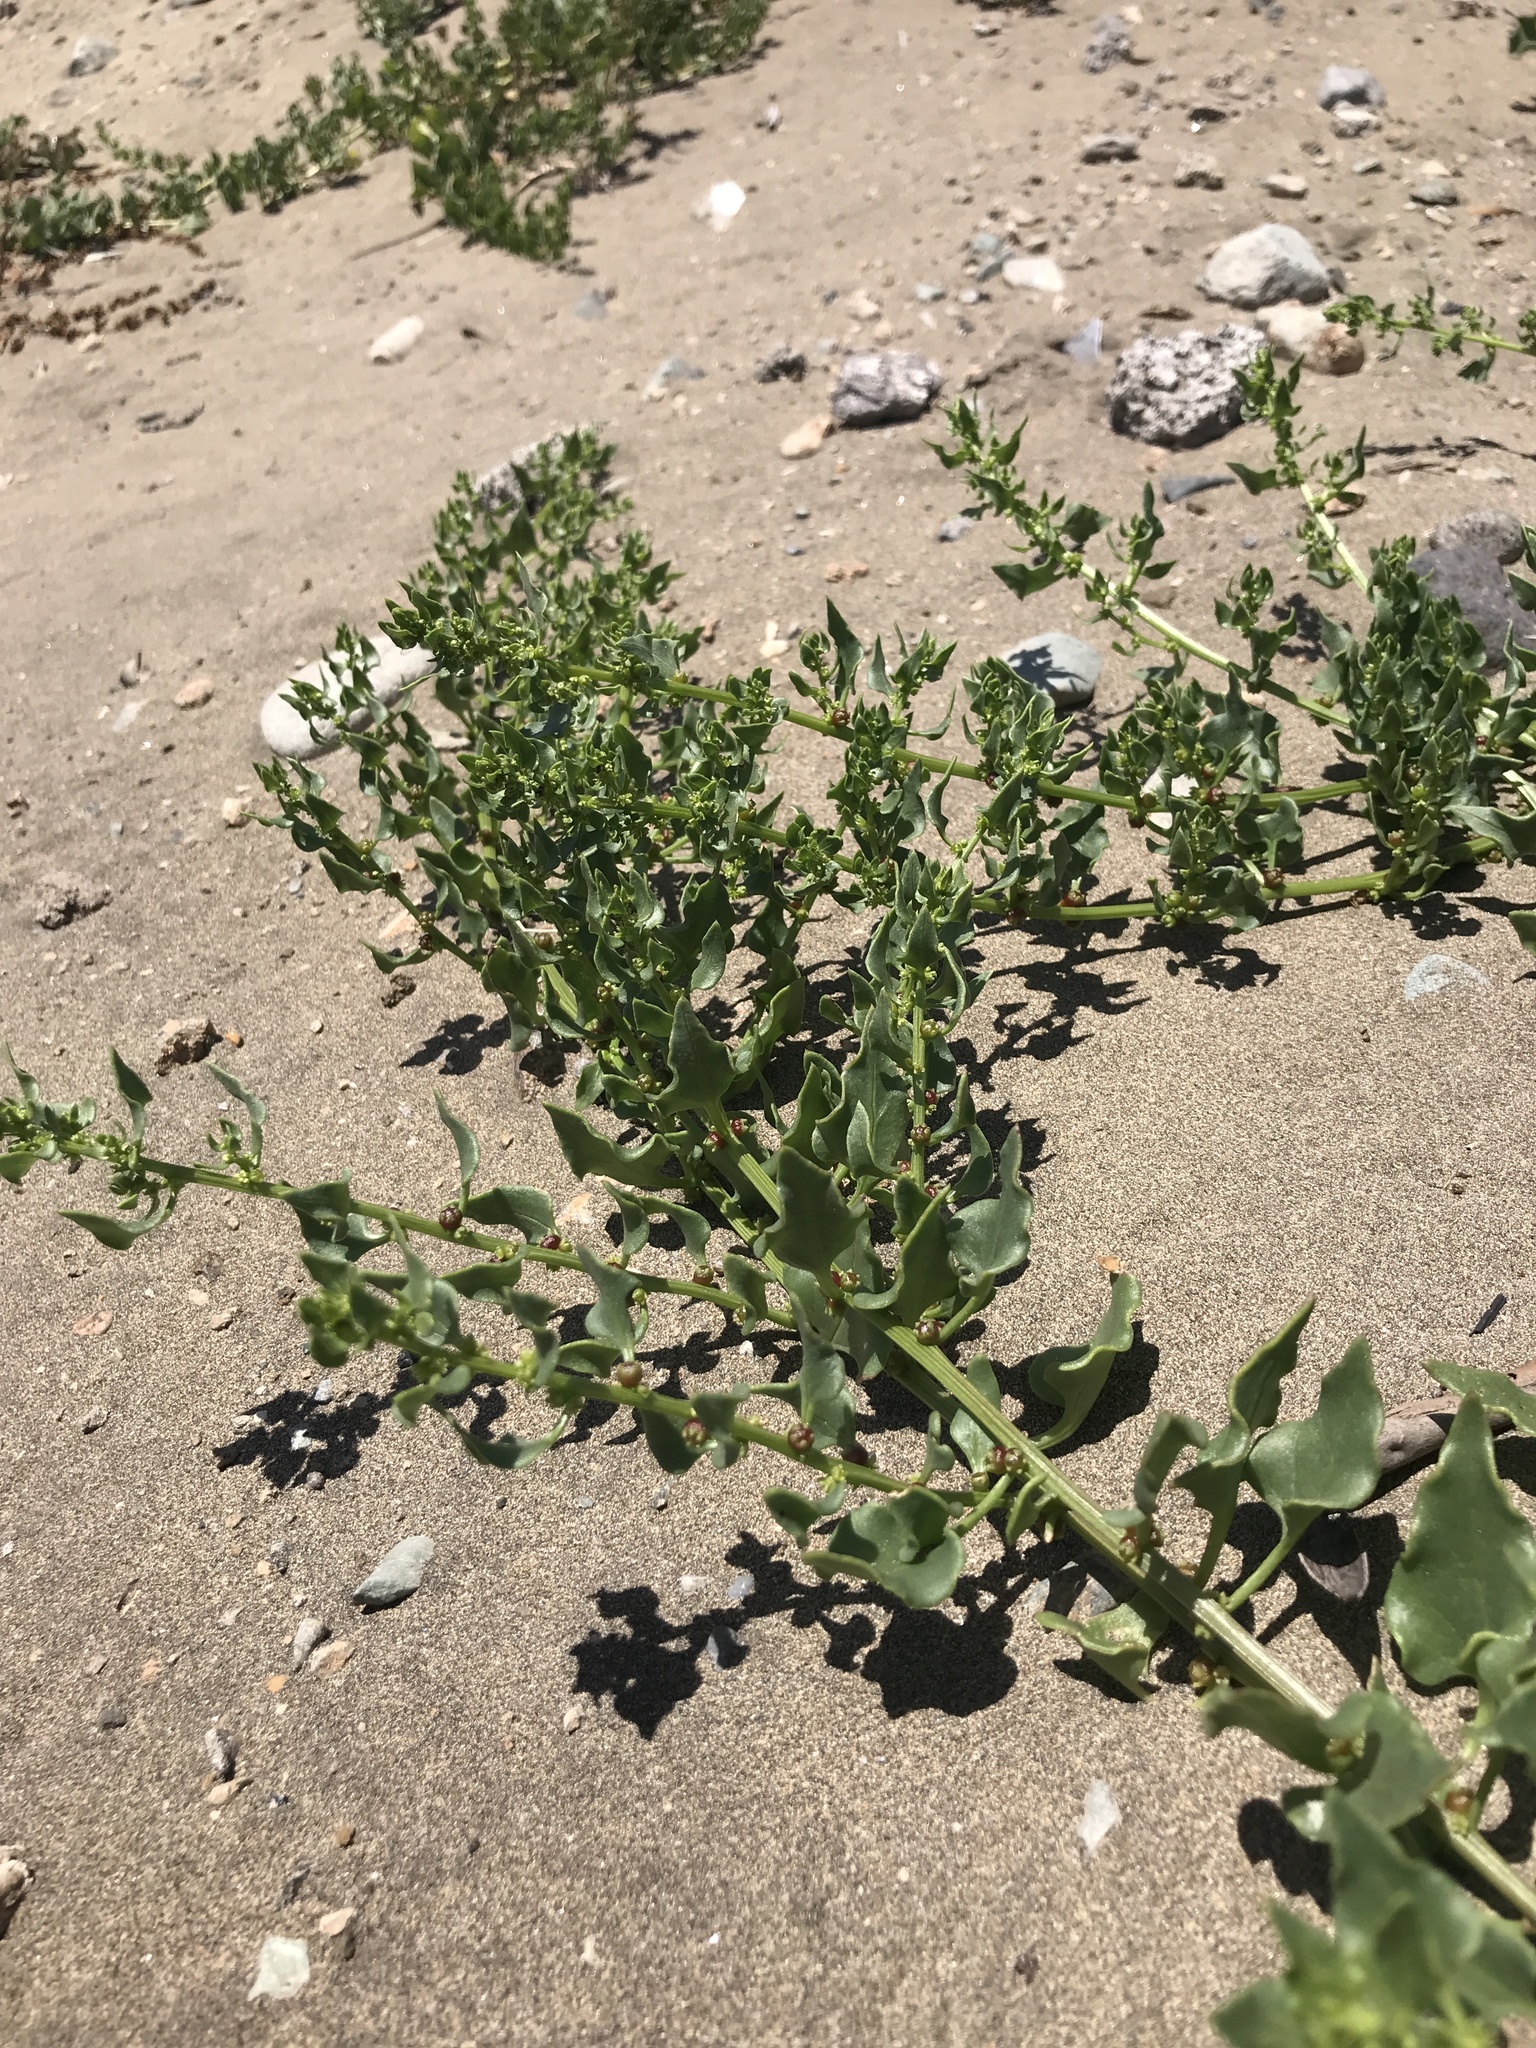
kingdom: Plantae
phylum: Tracheophyta
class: Magnoliopsida
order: Caryophyllales
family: Amaranthaceae
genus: Patellifolia
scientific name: Patellifolia procumbens
